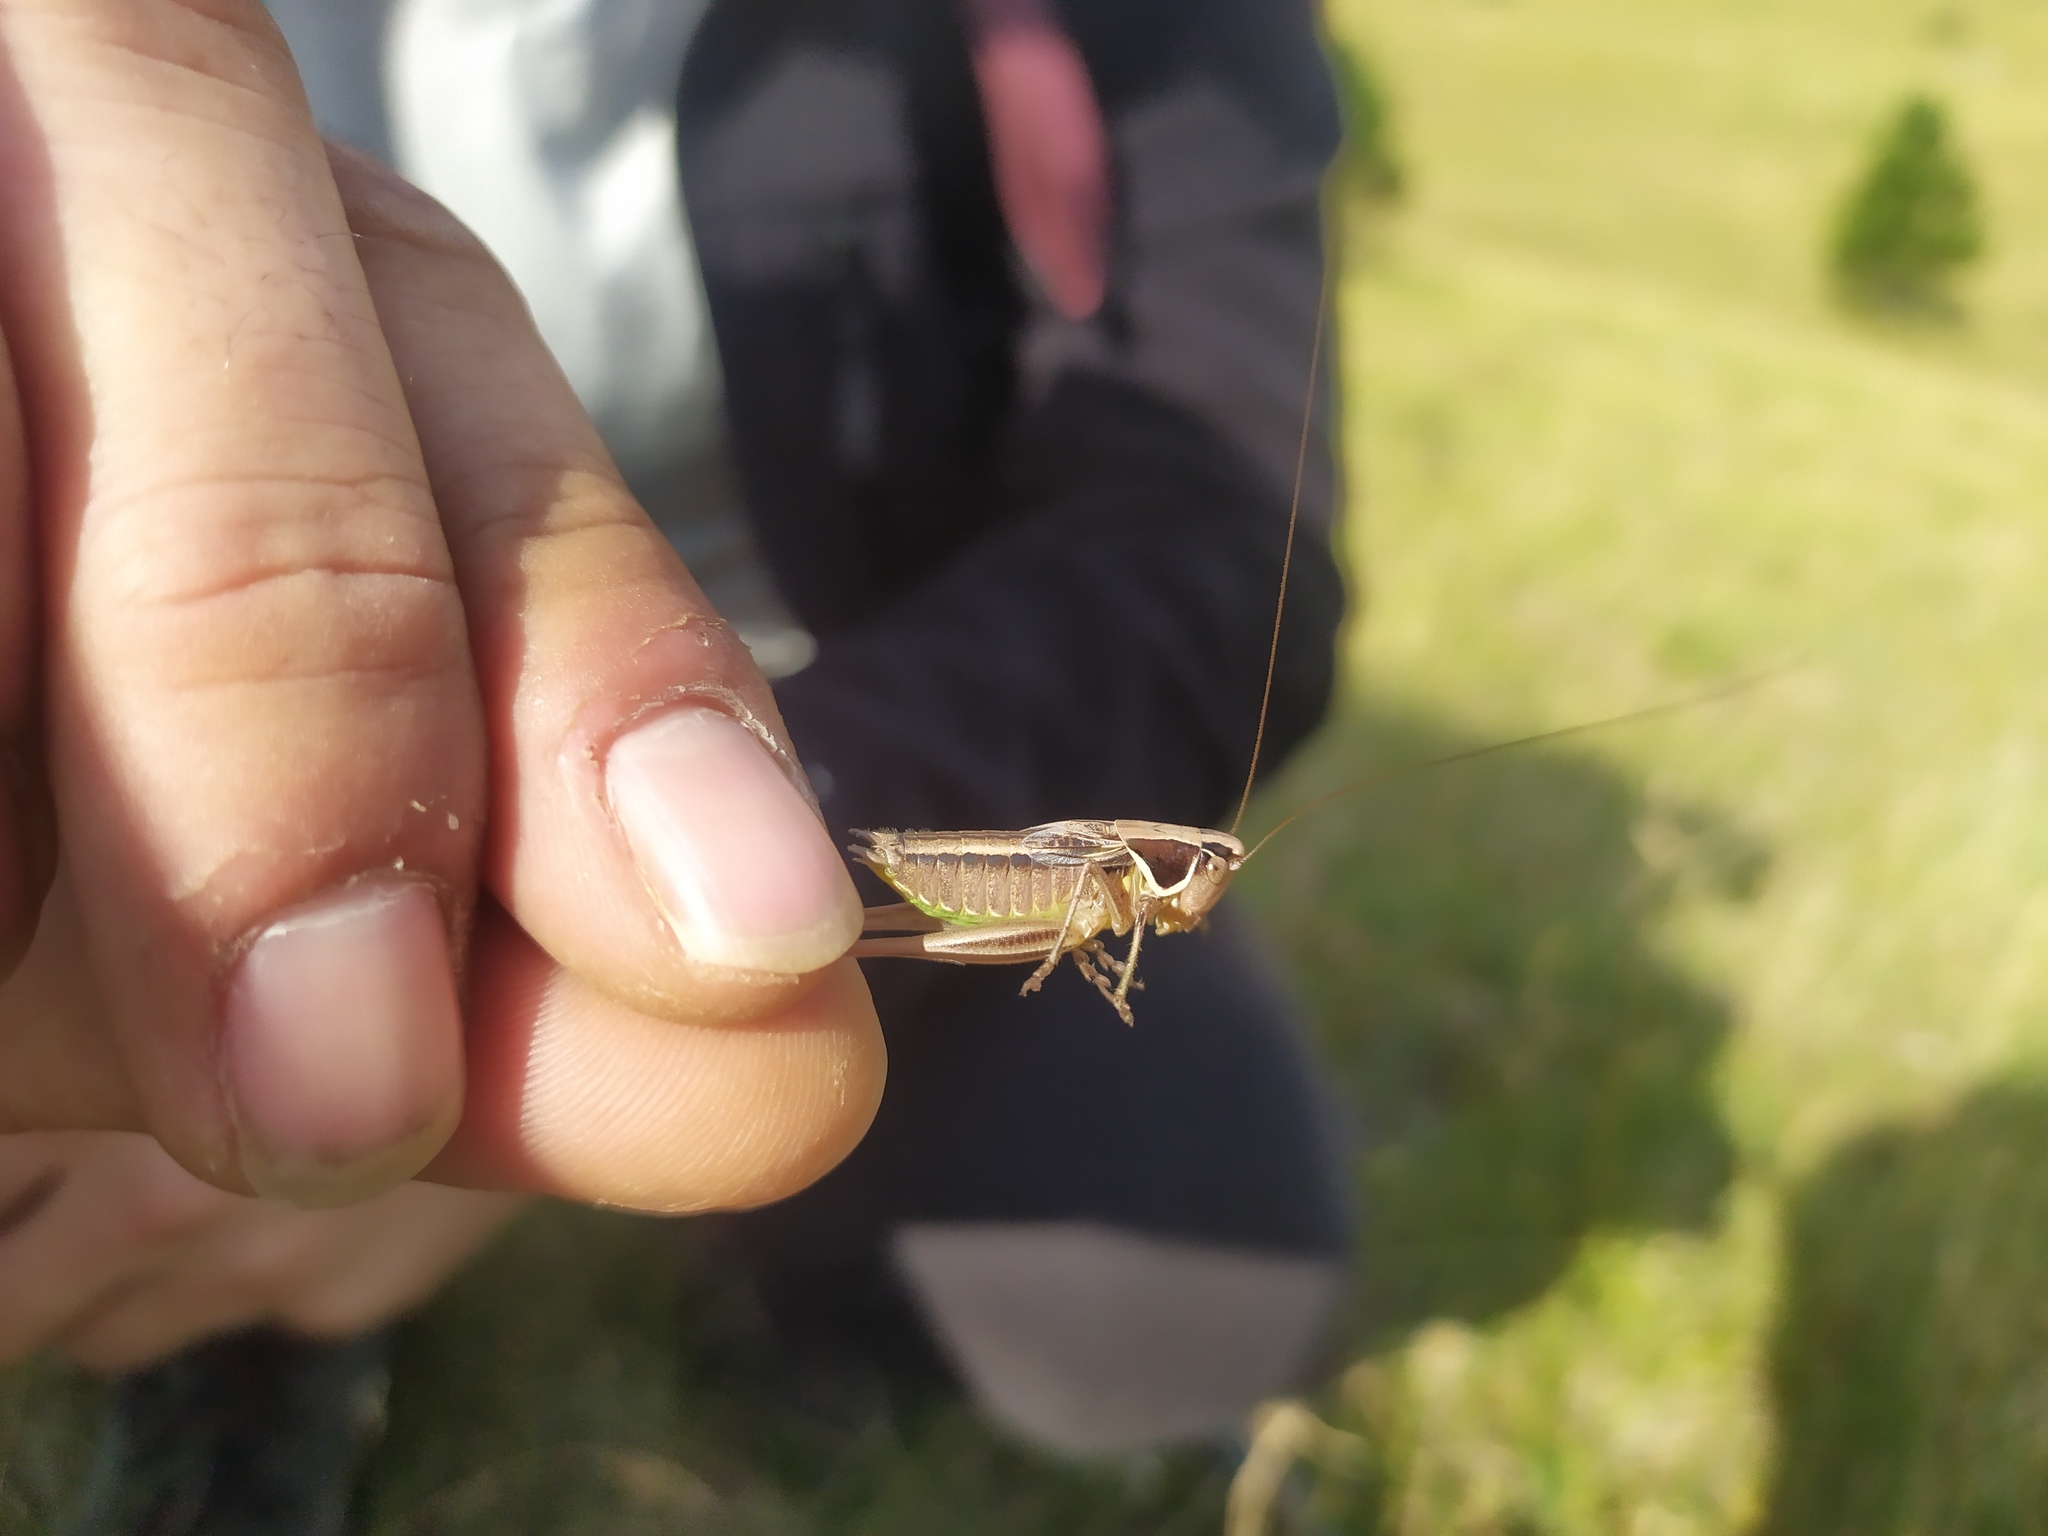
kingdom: Animalia
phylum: Arthropoda
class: Insecta
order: Orthoptera
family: Tettigoniidae
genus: Modestana
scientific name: Modestana modesta
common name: Common modest bush-cricket
